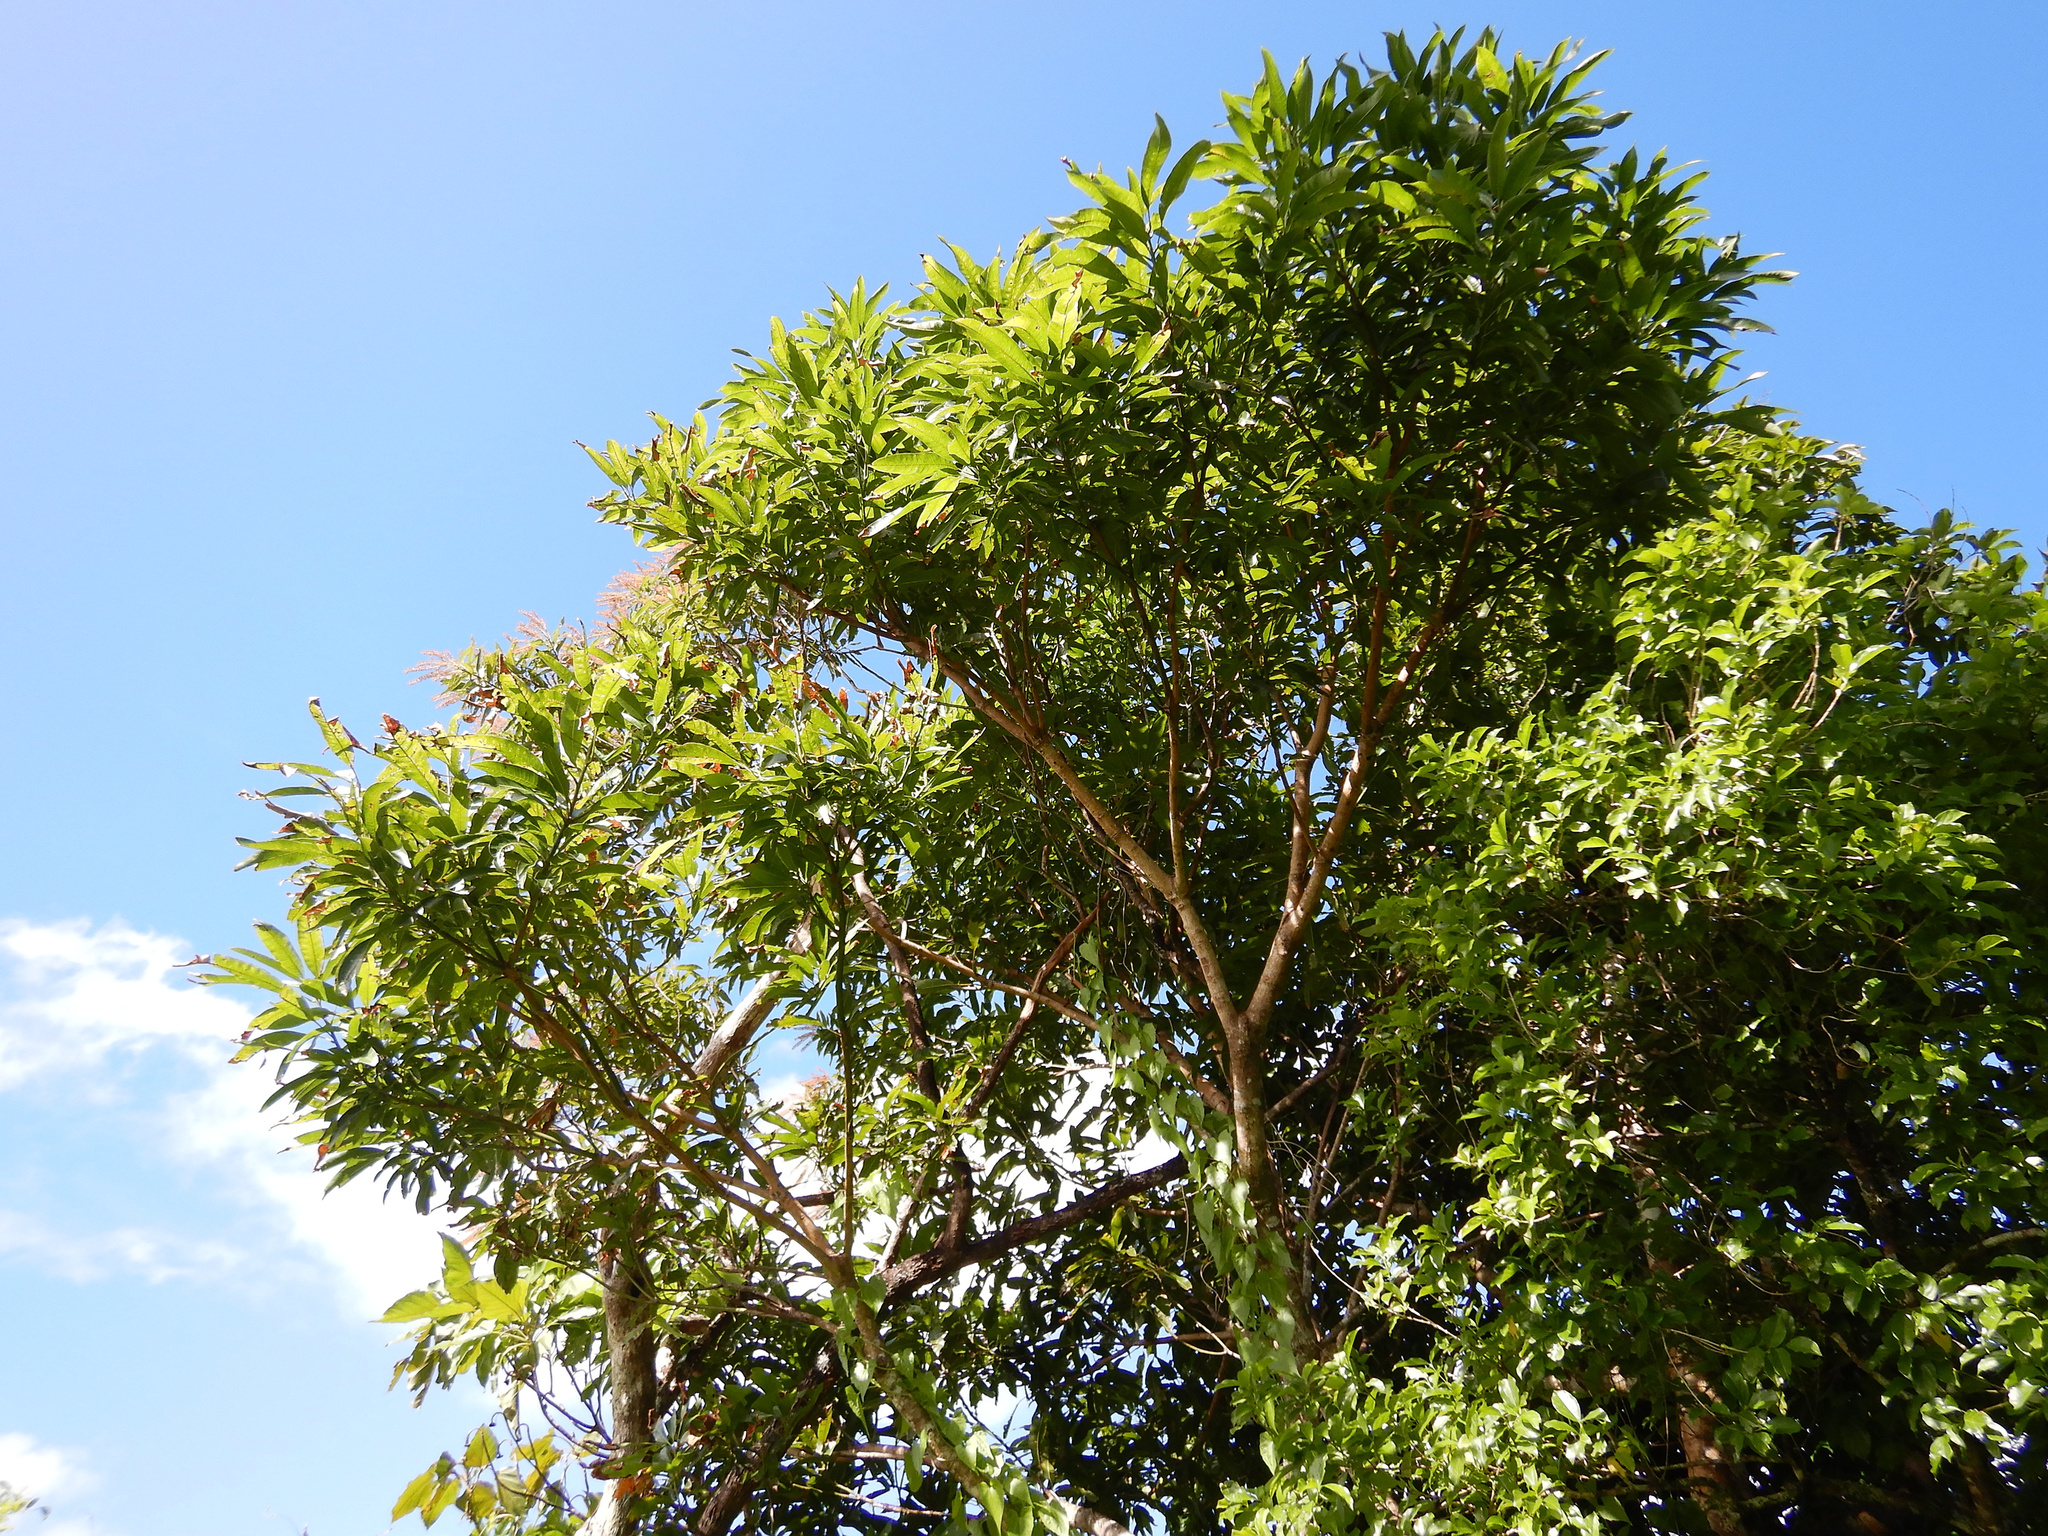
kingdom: Plantae
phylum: Tracheophyta
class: Magnoliopsida
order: Oxalidales
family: Cunoniaceae
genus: Pterophylla
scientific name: Pterophylla samoensis
